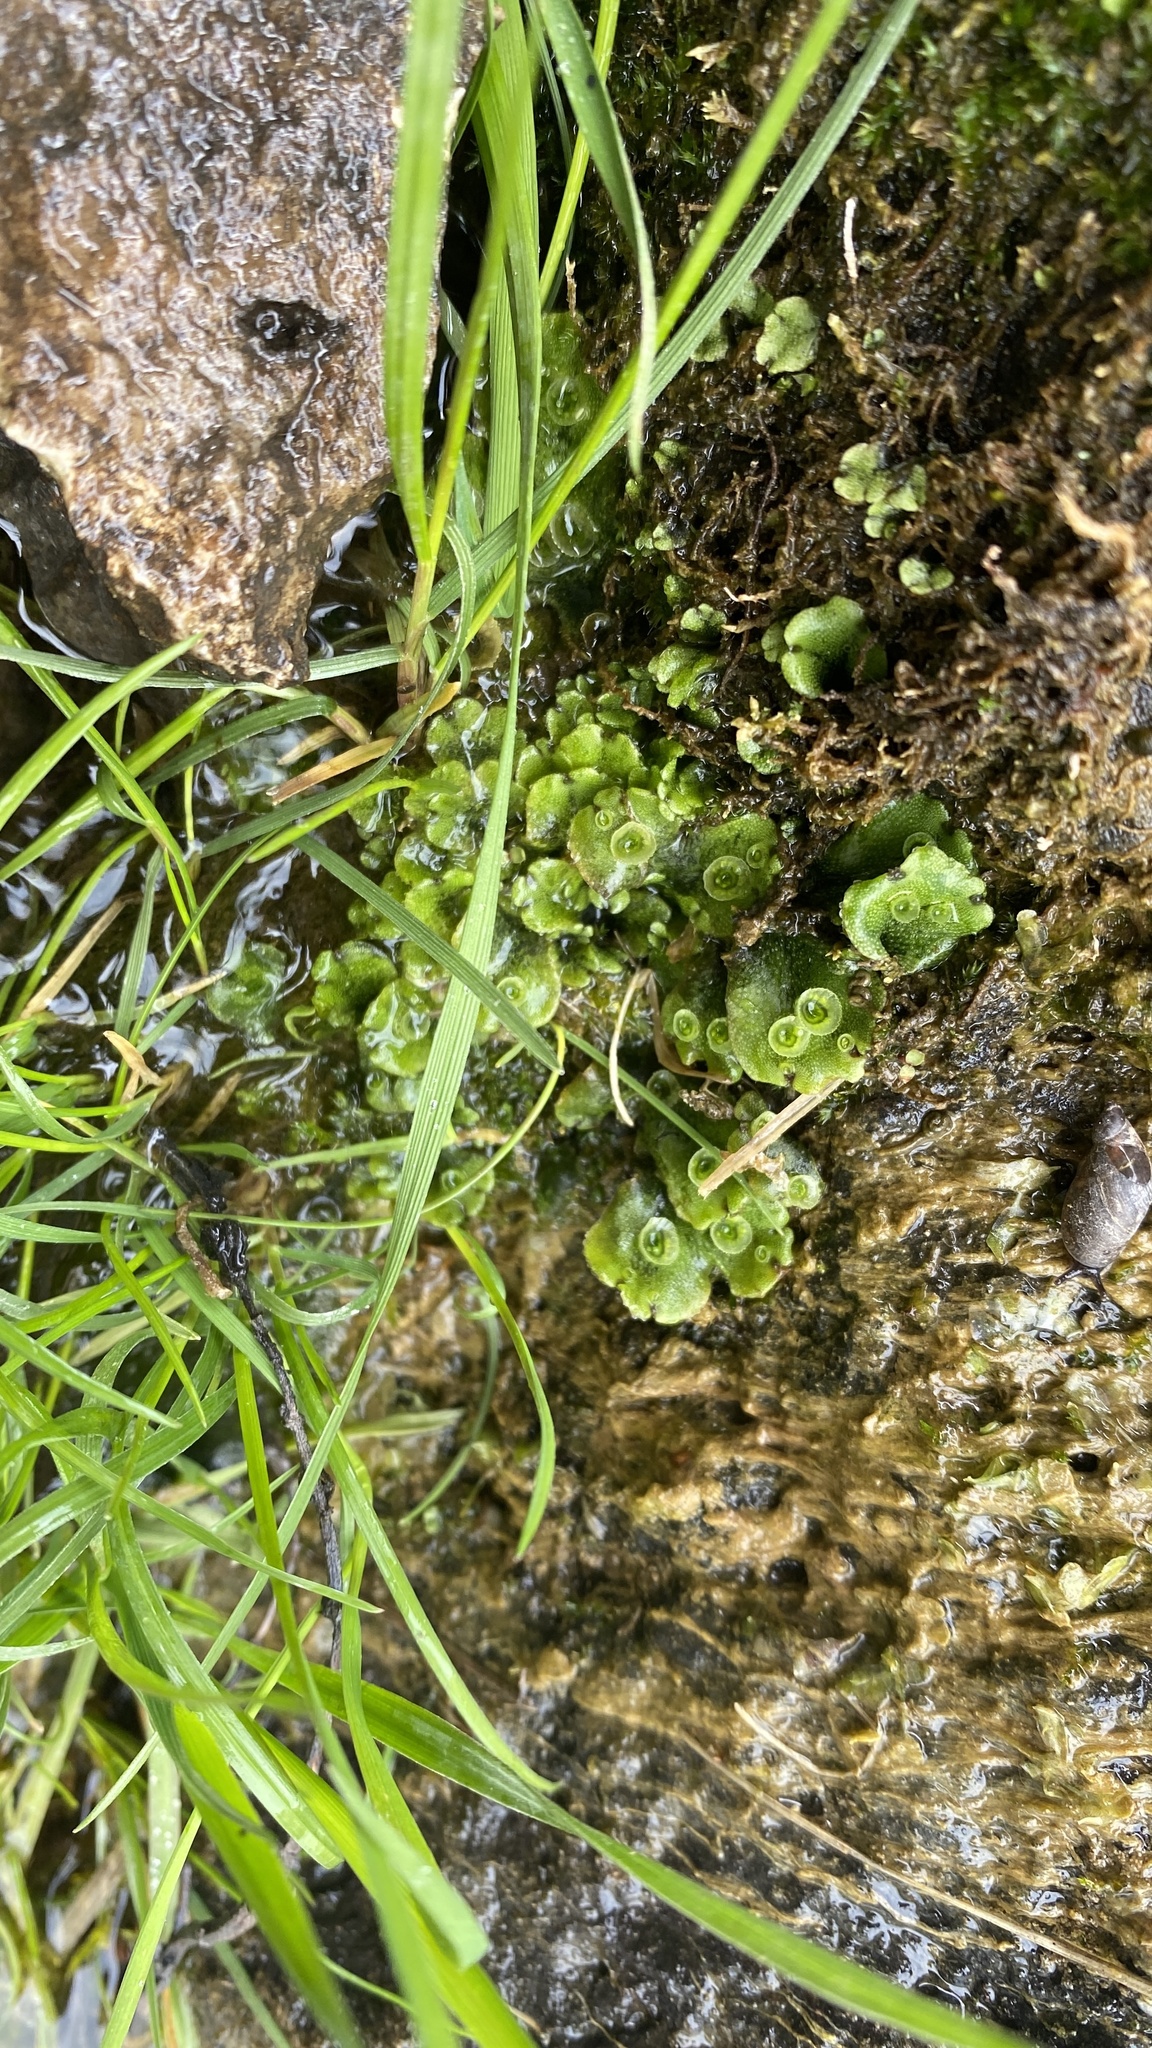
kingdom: Plantae
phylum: Marchantiophyta
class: Marchantiopsida
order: Marchantiales
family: Marchantiaceae
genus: Marchantia
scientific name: Marchantia polymorpha
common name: Common liverwort
